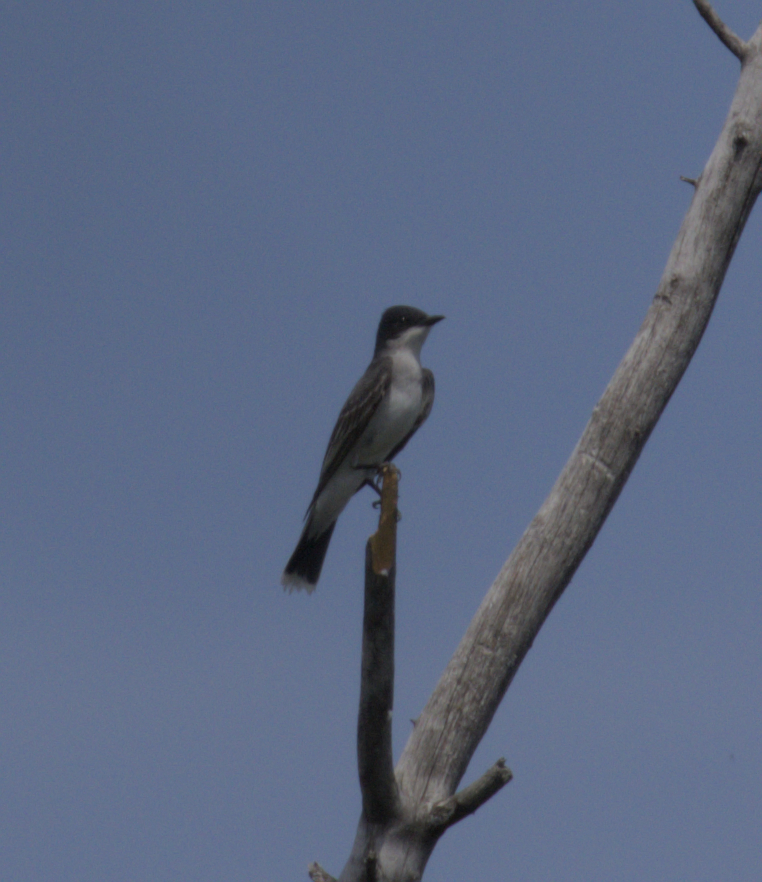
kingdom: Animalia
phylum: Chordata
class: Aves
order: Passeriformes
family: Tyrannidae
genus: Tyrannus
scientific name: Tyrannus tyrannus
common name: Eastern kingbird
